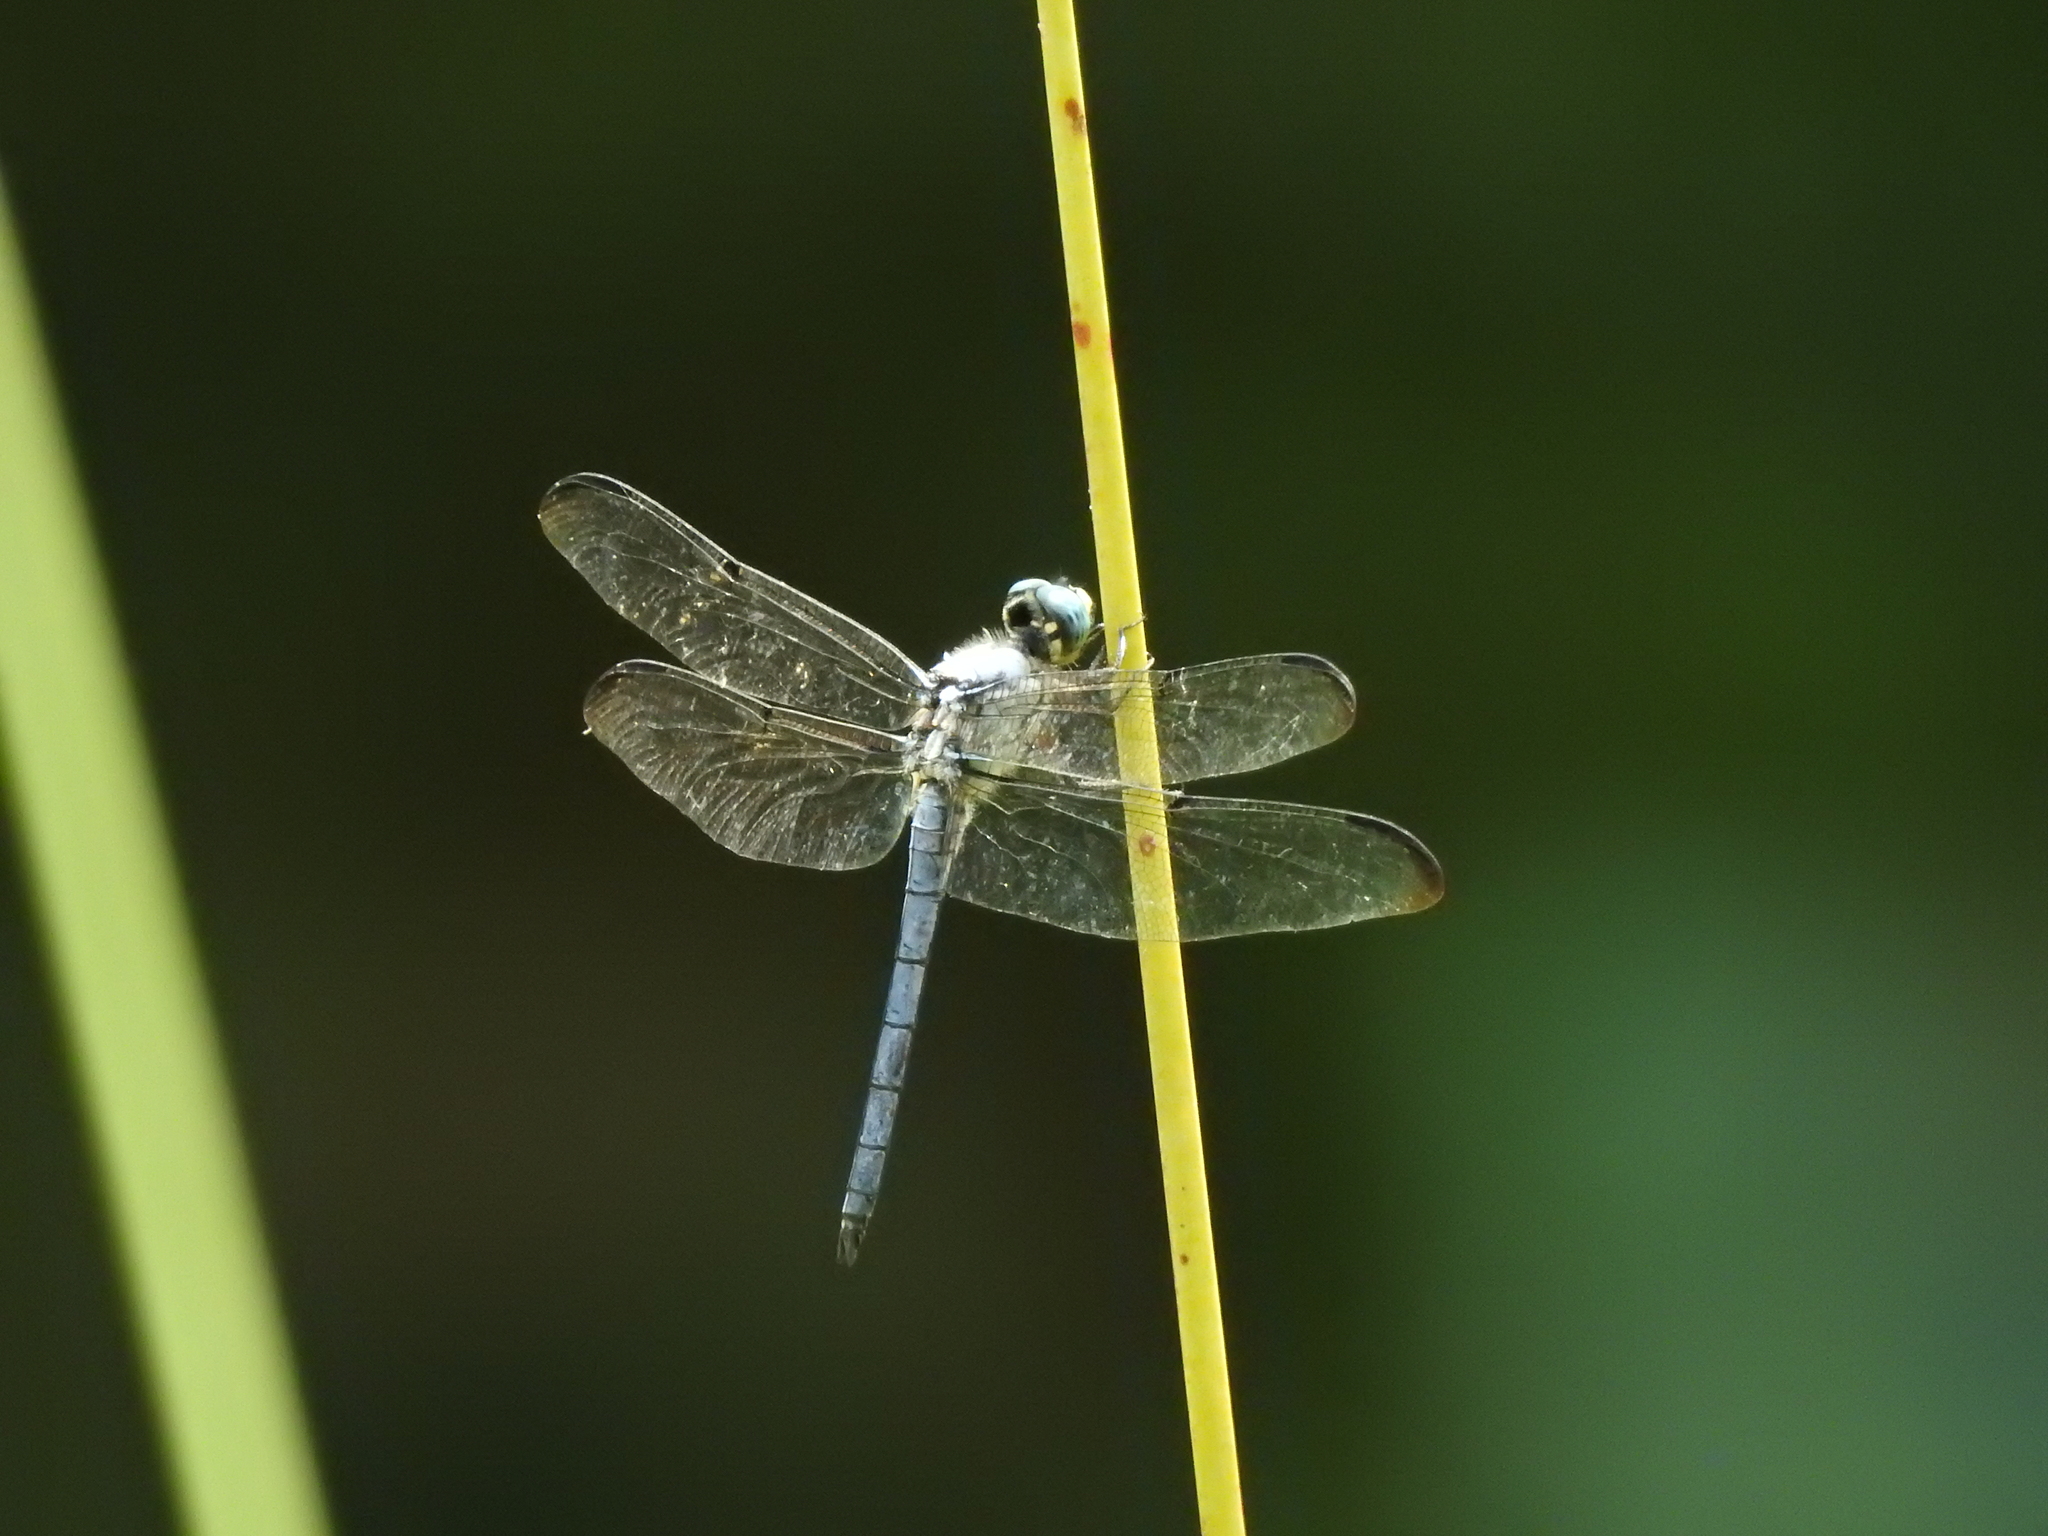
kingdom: Animalia
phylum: Arthropoda
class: Insecta
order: Odonata
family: Libellulidae
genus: Libellula
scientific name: Libellula vibrans
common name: Great blue skimmer
